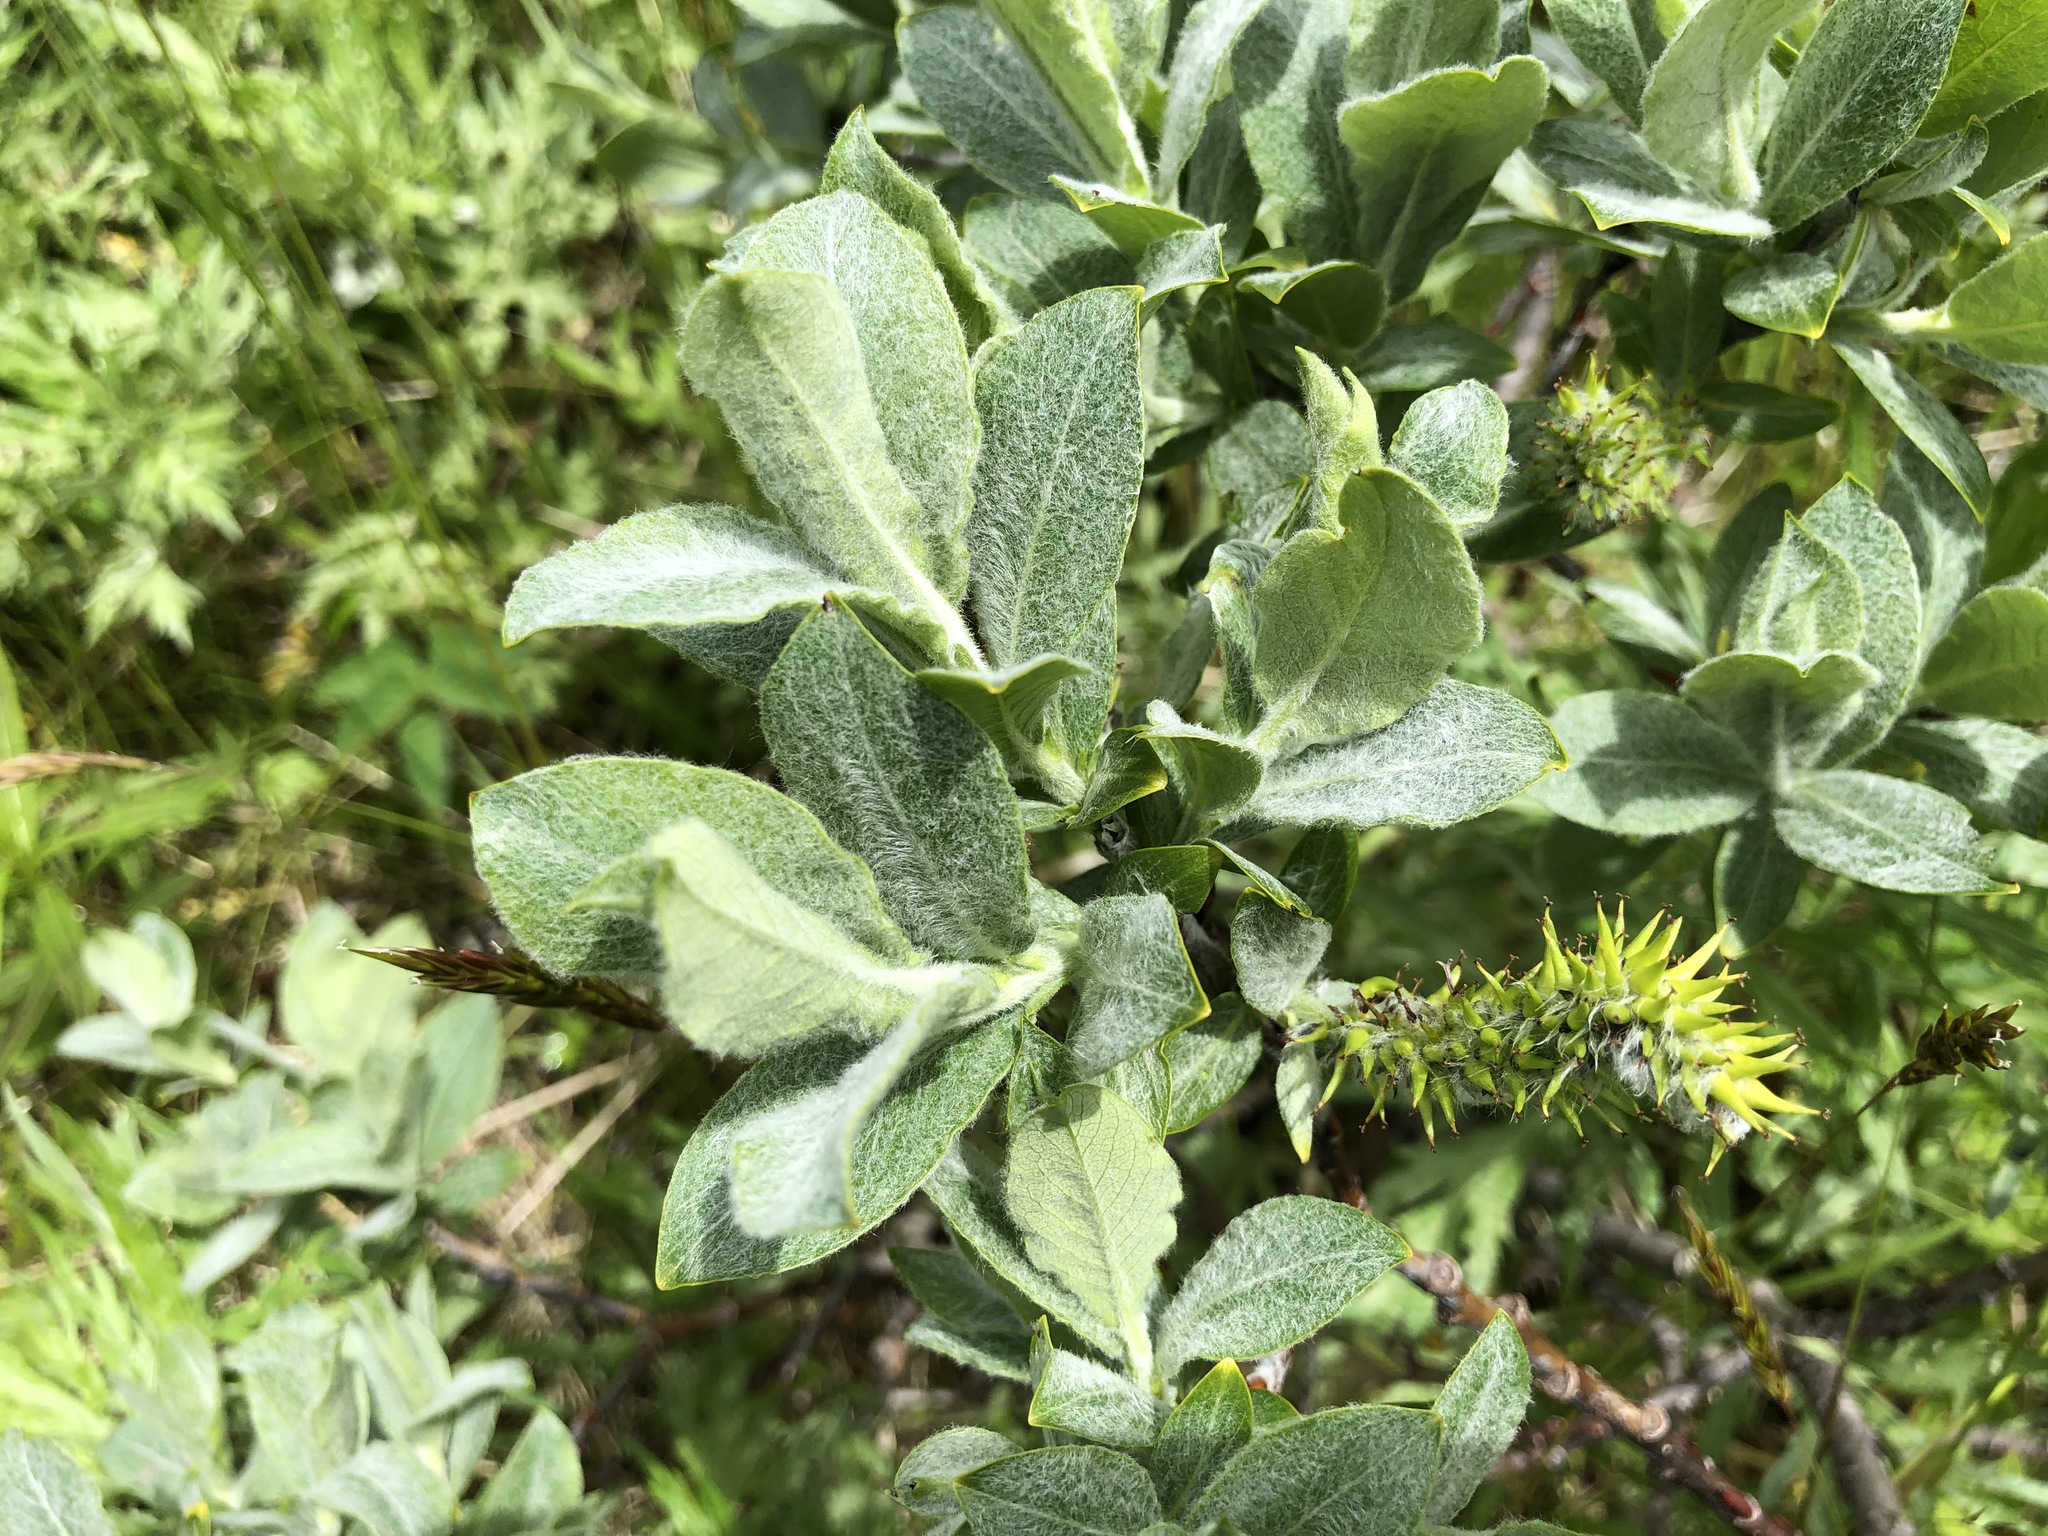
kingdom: Plantae
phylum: Tracheophyta
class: Magnoliopsida
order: Malpighiales
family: Salicaceae
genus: Salix
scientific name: Salix glauca
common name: Glaucous willow
